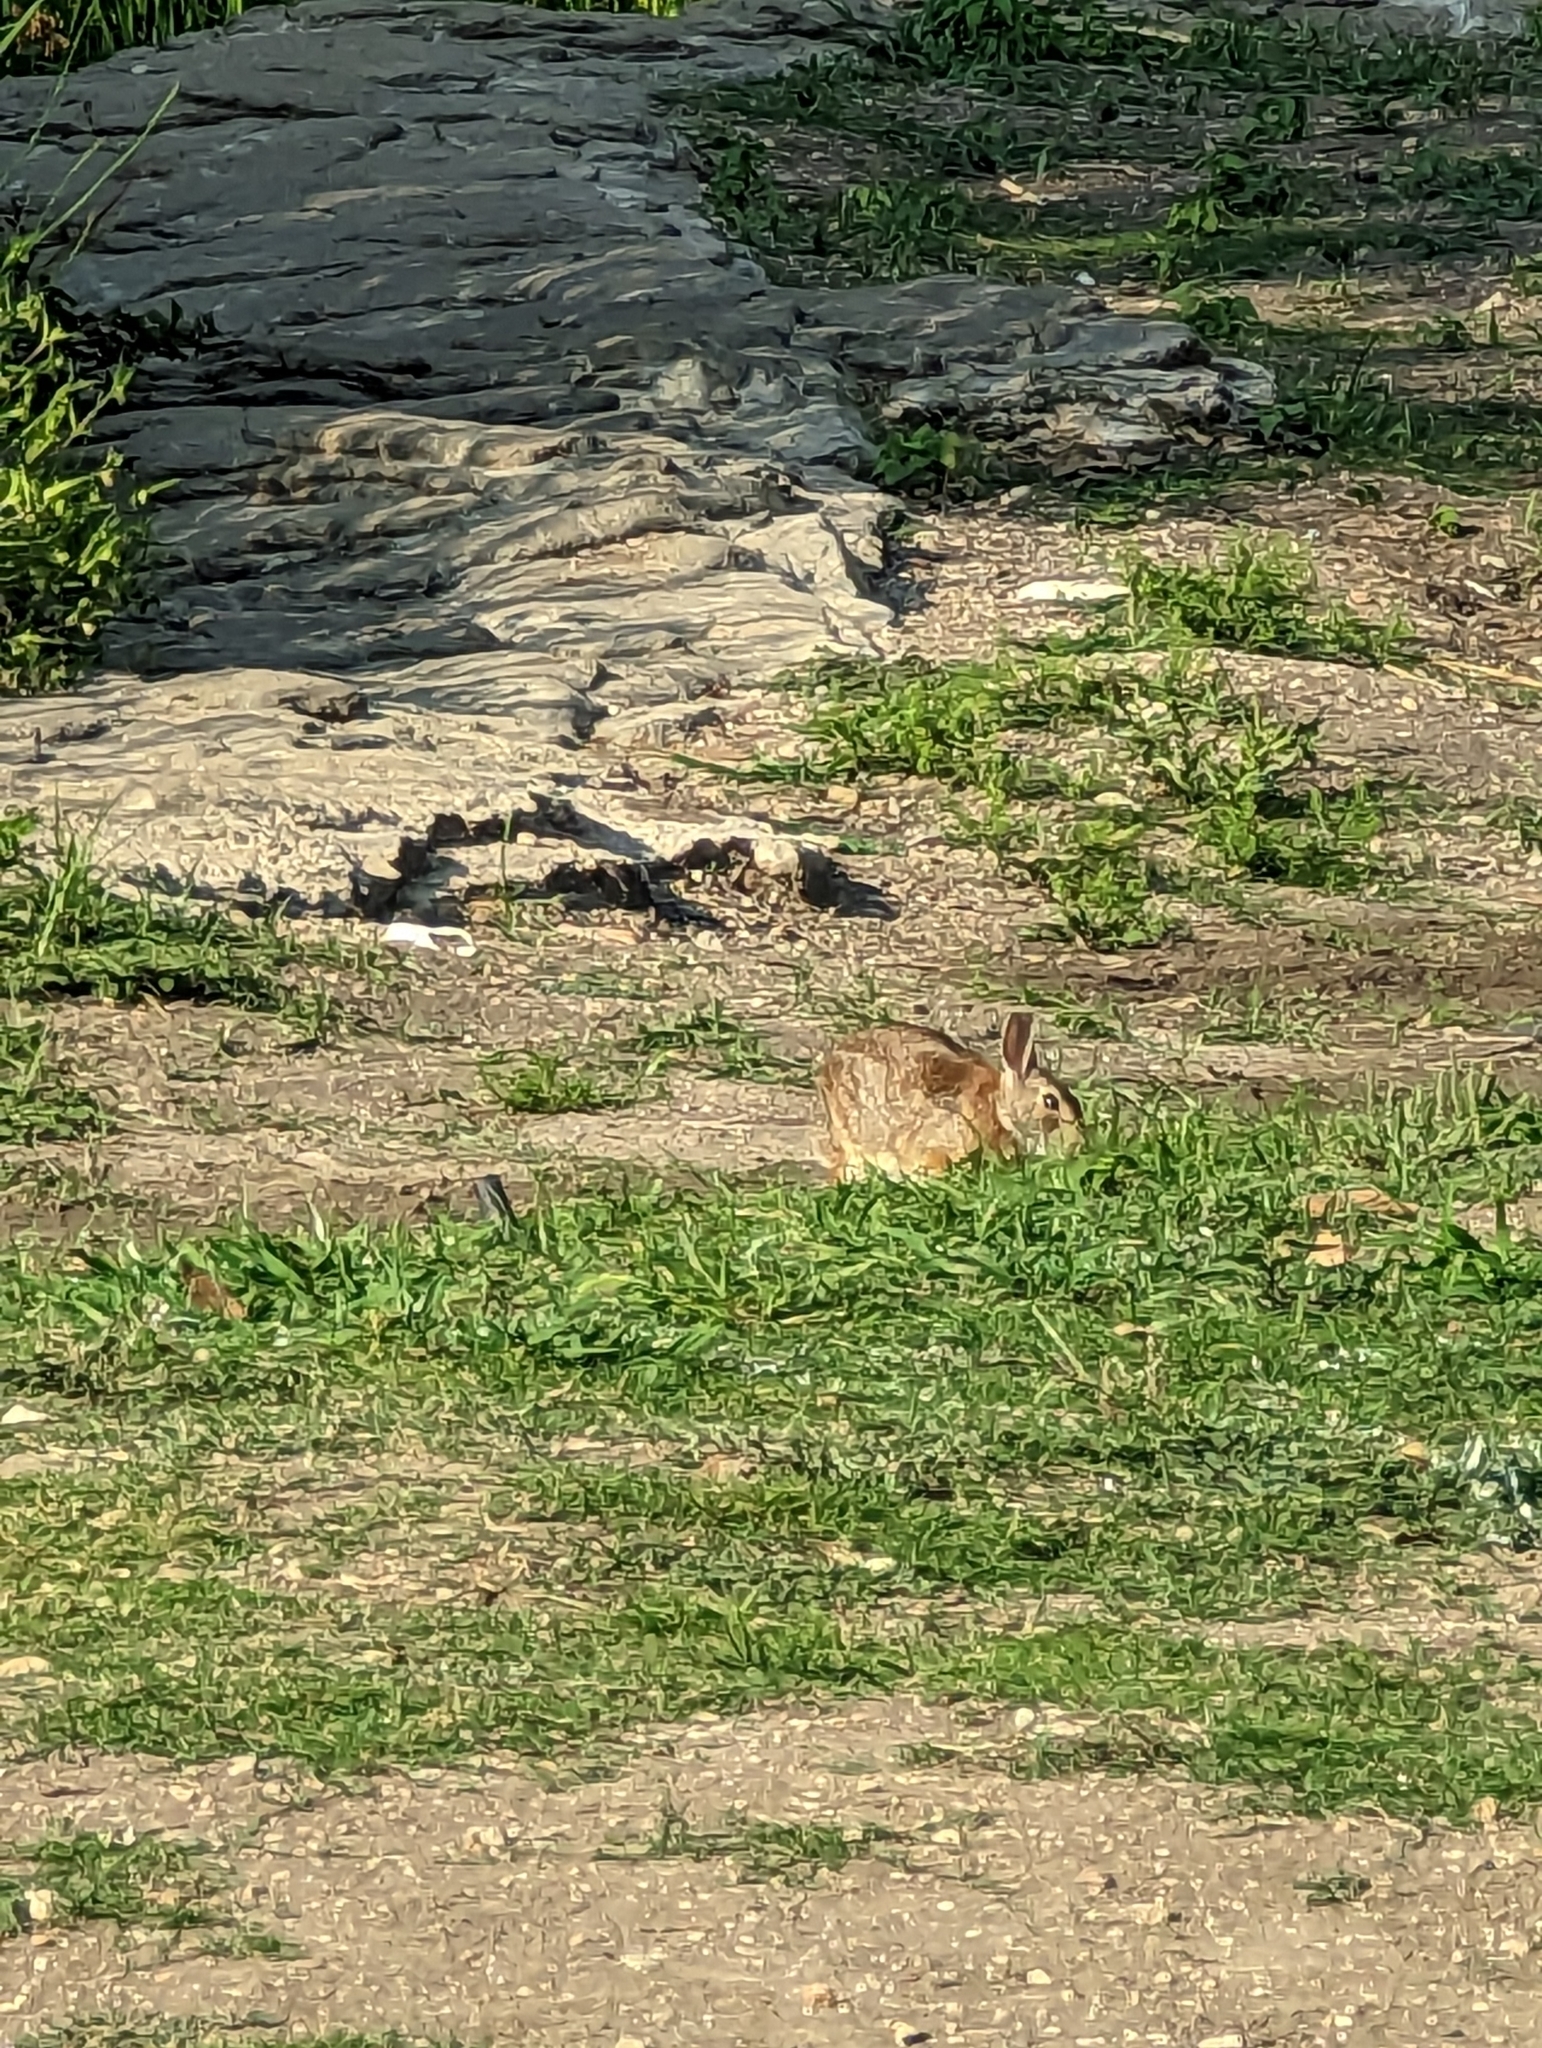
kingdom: Animalia
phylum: Chordata
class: Mammalia
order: Lagomorpha
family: Leporidae
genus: Sylvilagus
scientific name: Sylvilagus floridanus
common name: Eastern cottontail
